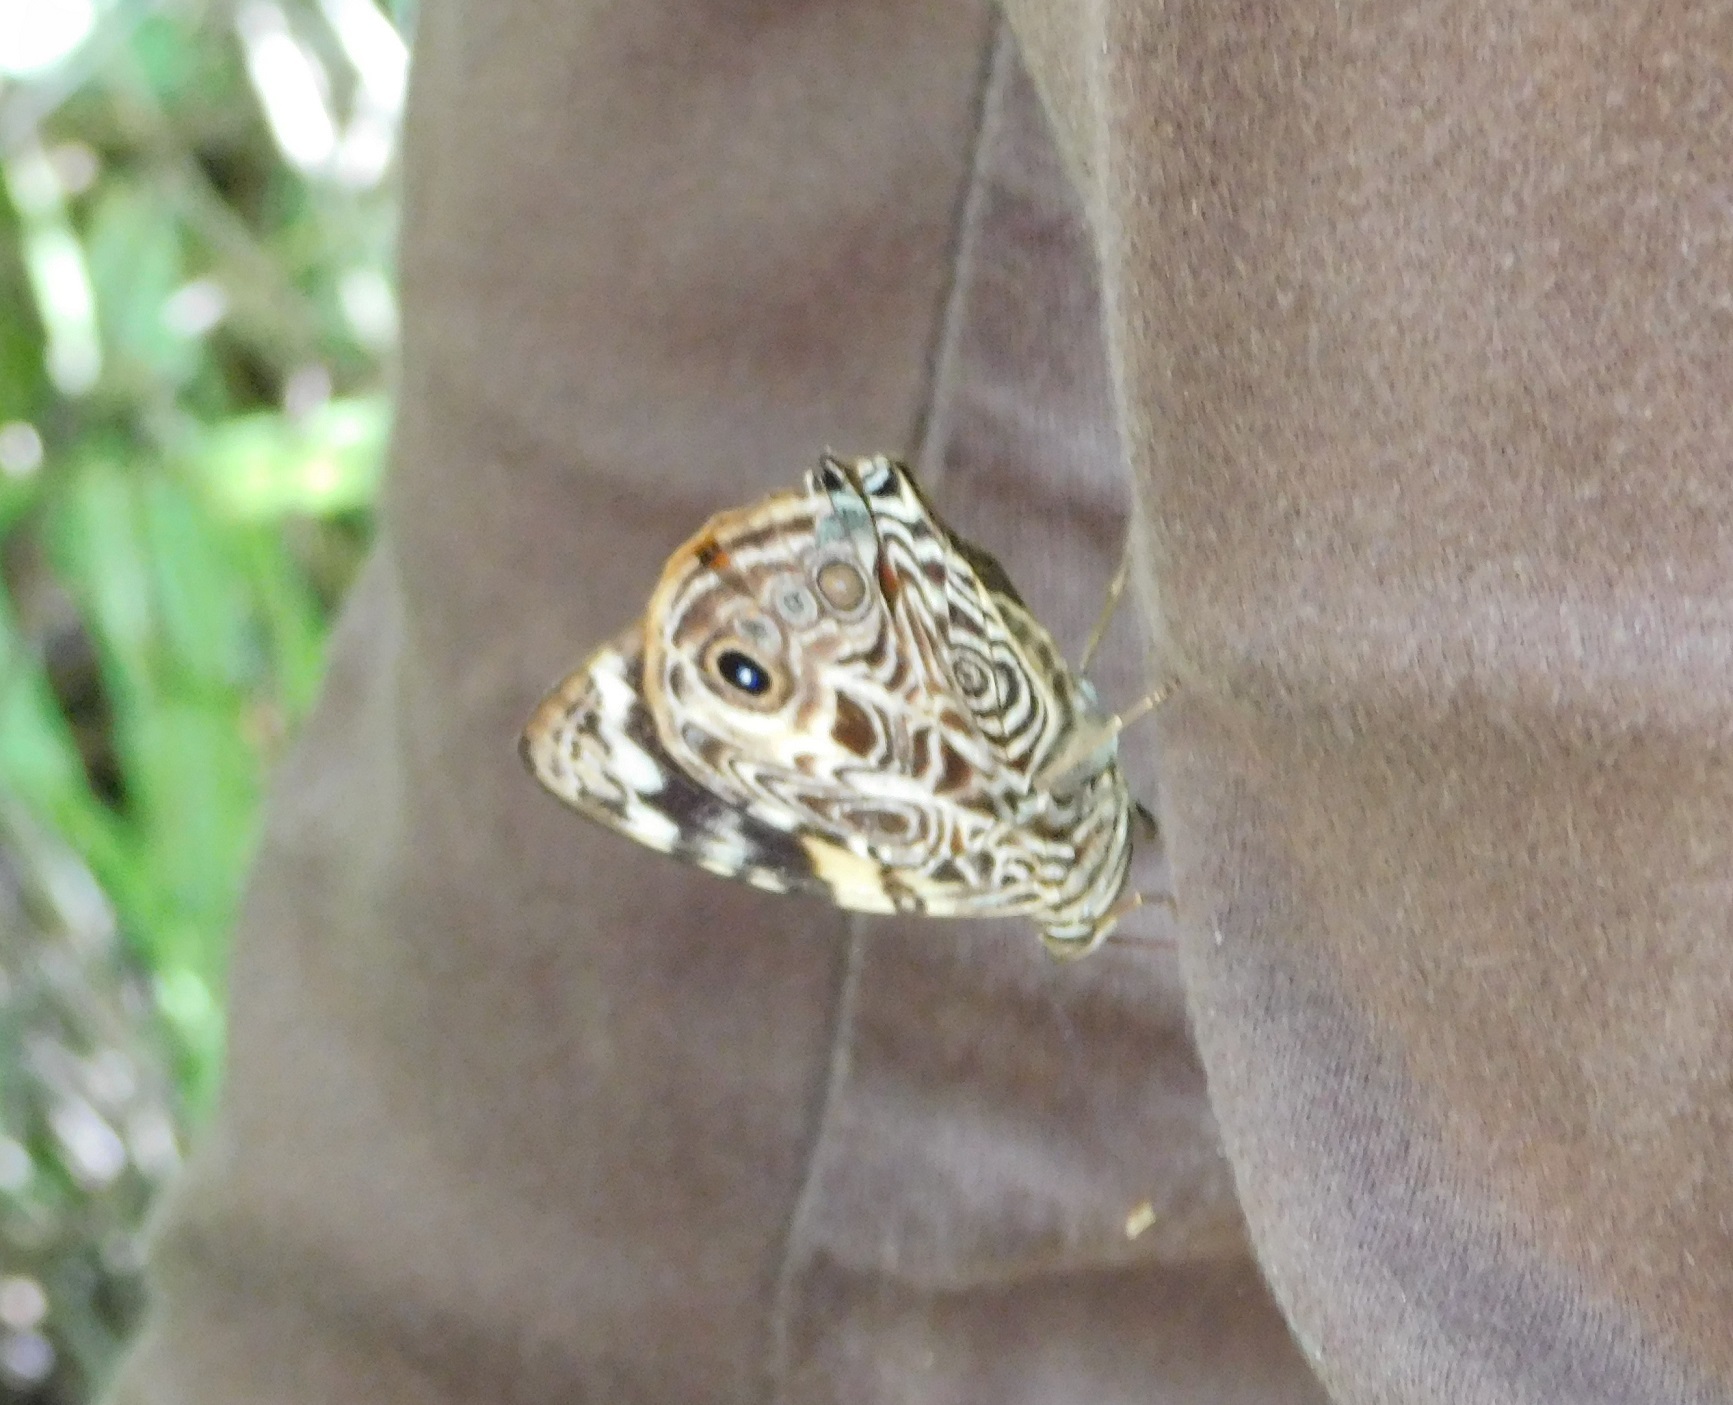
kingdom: Animalia
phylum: Arthropoda
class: Insecta
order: Lepidoptera
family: Nymphalidae
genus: Smyrna
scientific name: Smyrna blomfildia
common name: Blomfild's beauty
